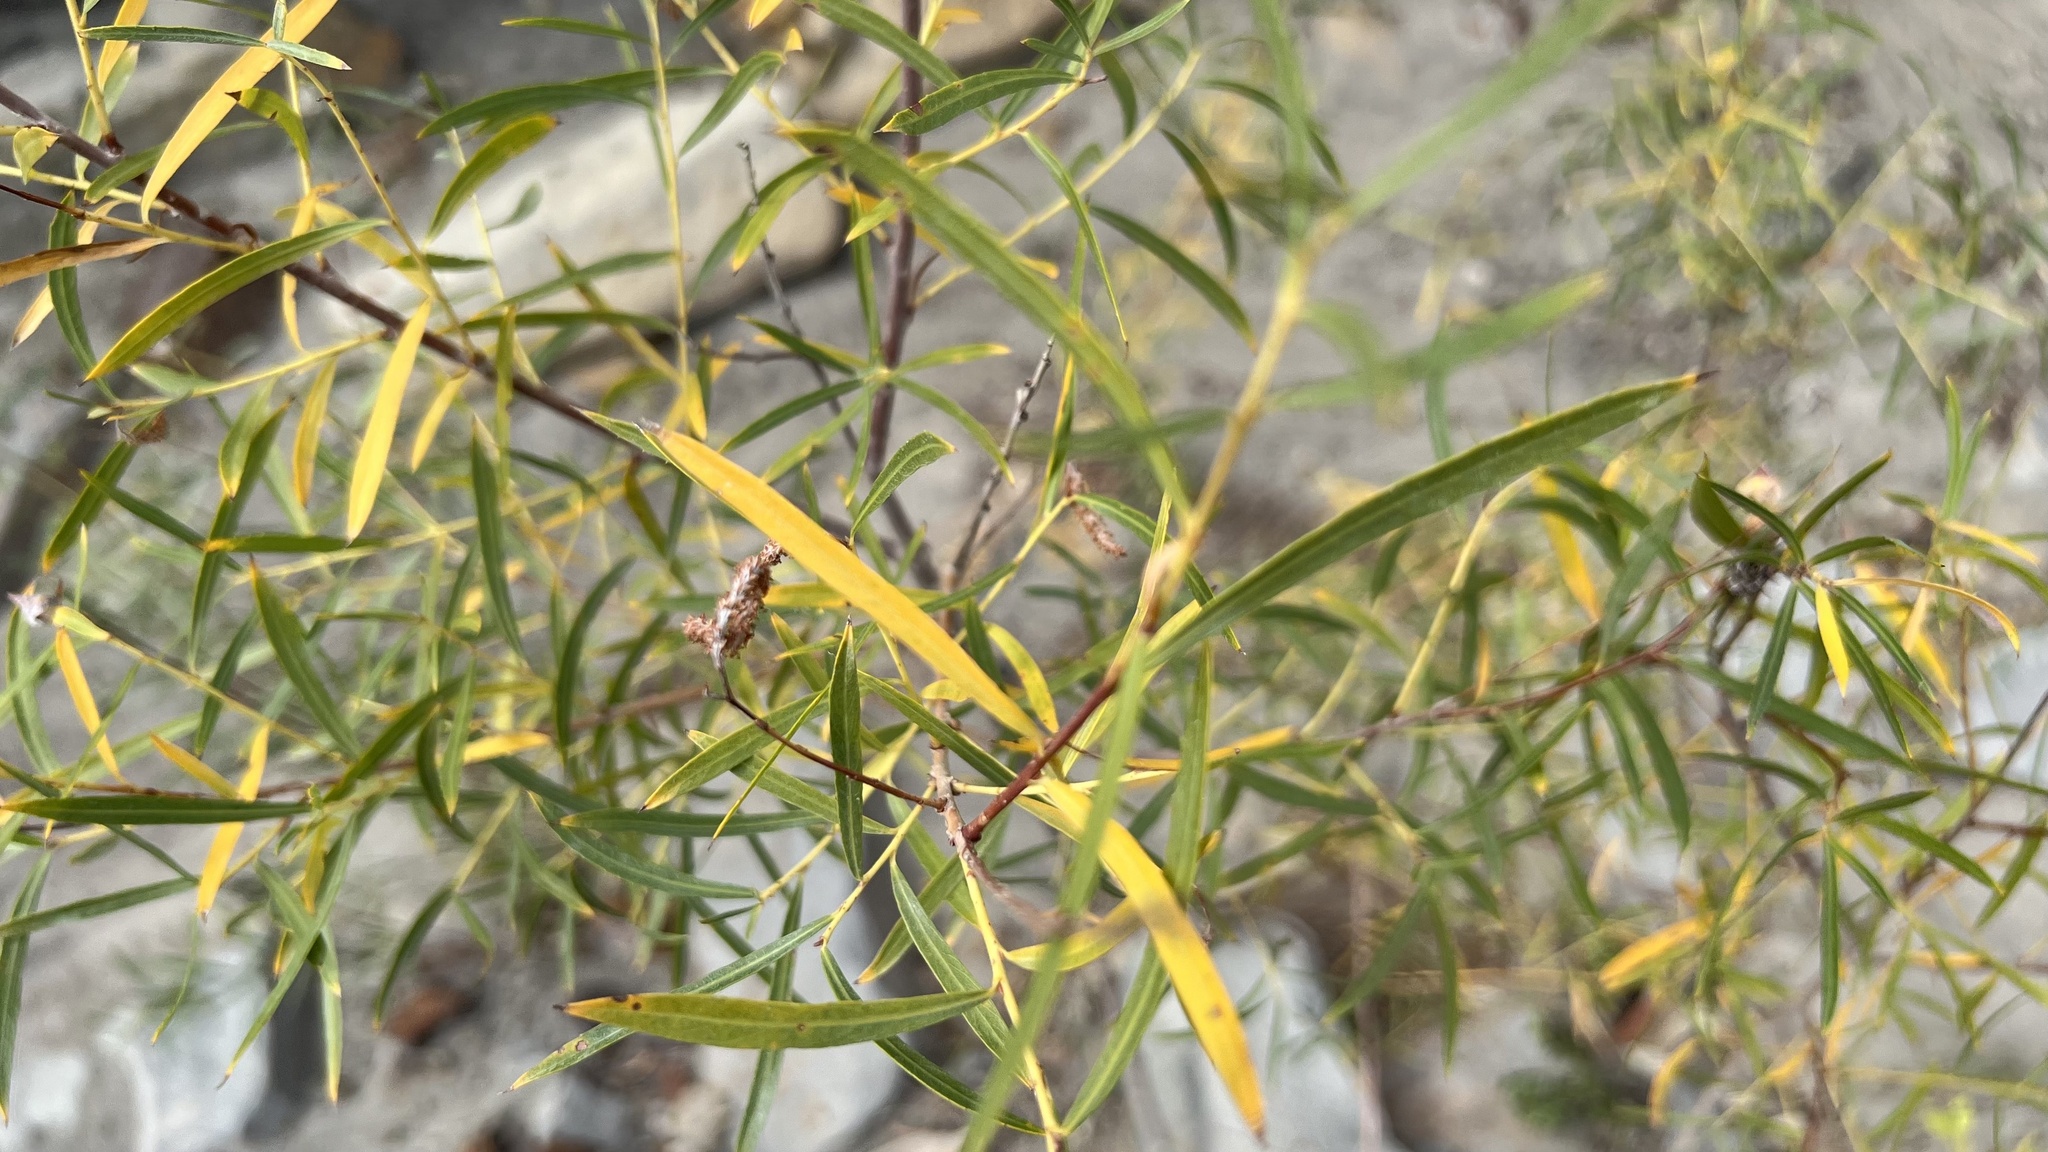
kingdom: Plantae
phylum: Tracheophyta
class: Magnoliopsida
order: Malpighiales
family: Salicaceae
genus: Salix
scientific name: Salix interior
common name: Sandbar willow
